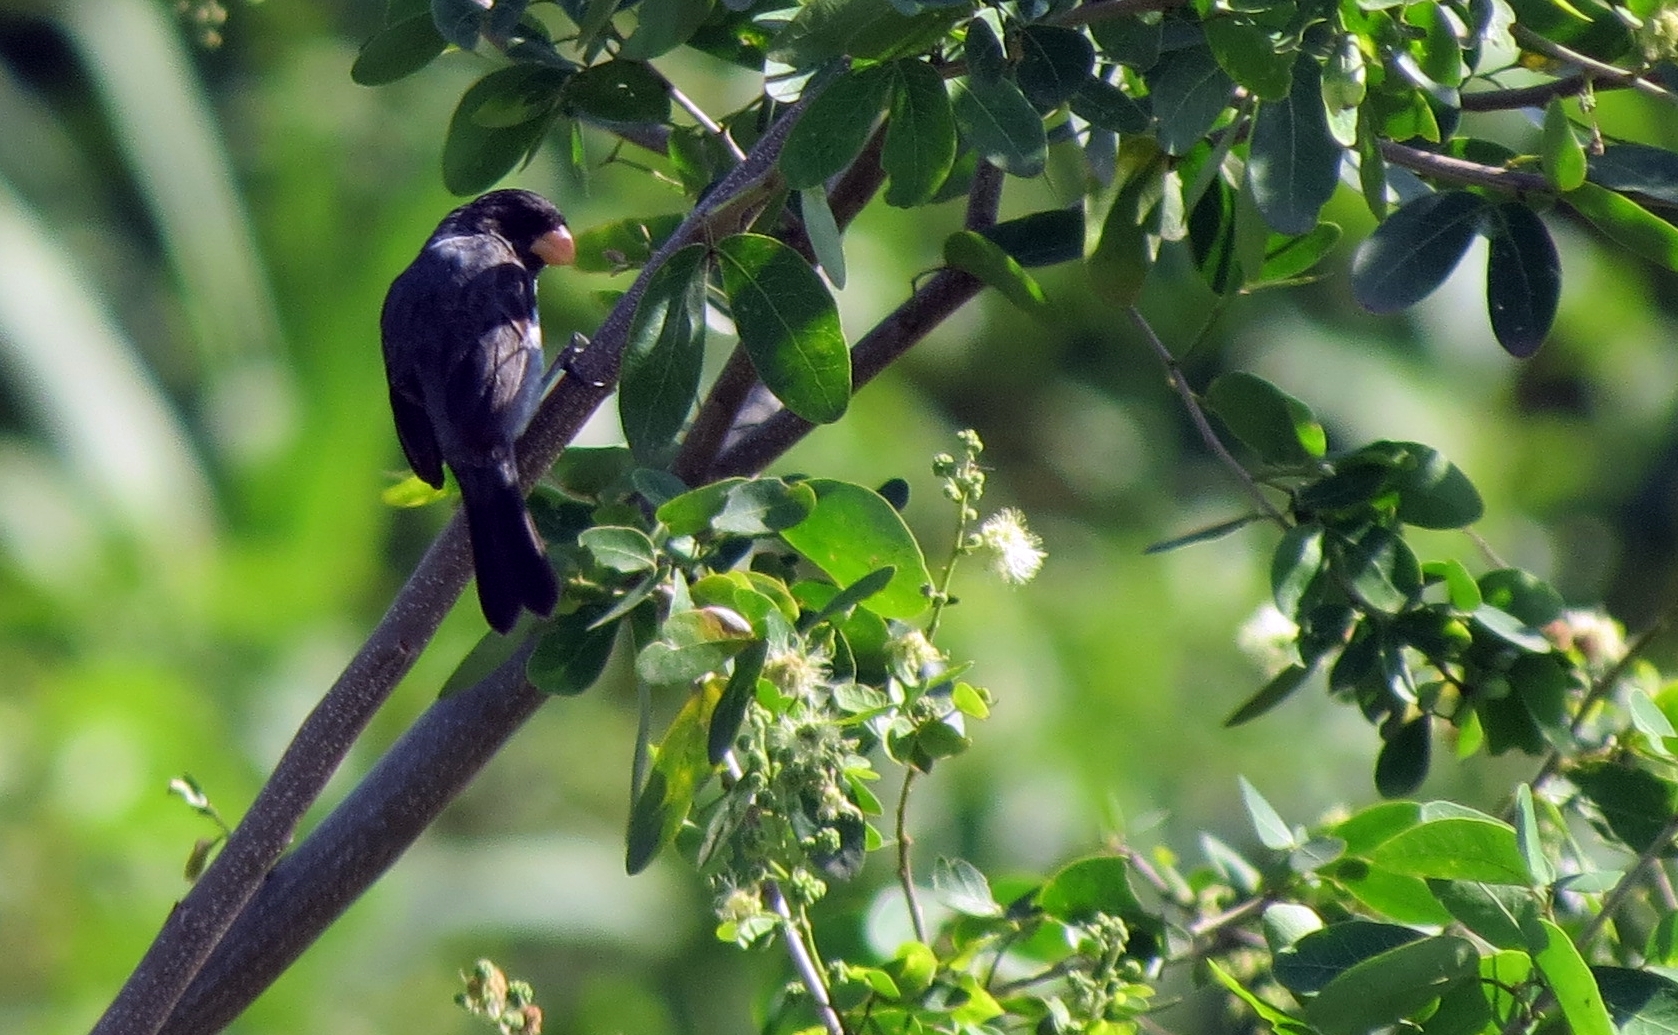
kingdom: Animalia
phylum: Chordata
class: Aves
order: Passeriformes
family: Thraupidae
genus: Sporophila
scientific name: Sporophila intermedia
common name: Grey seedeater
